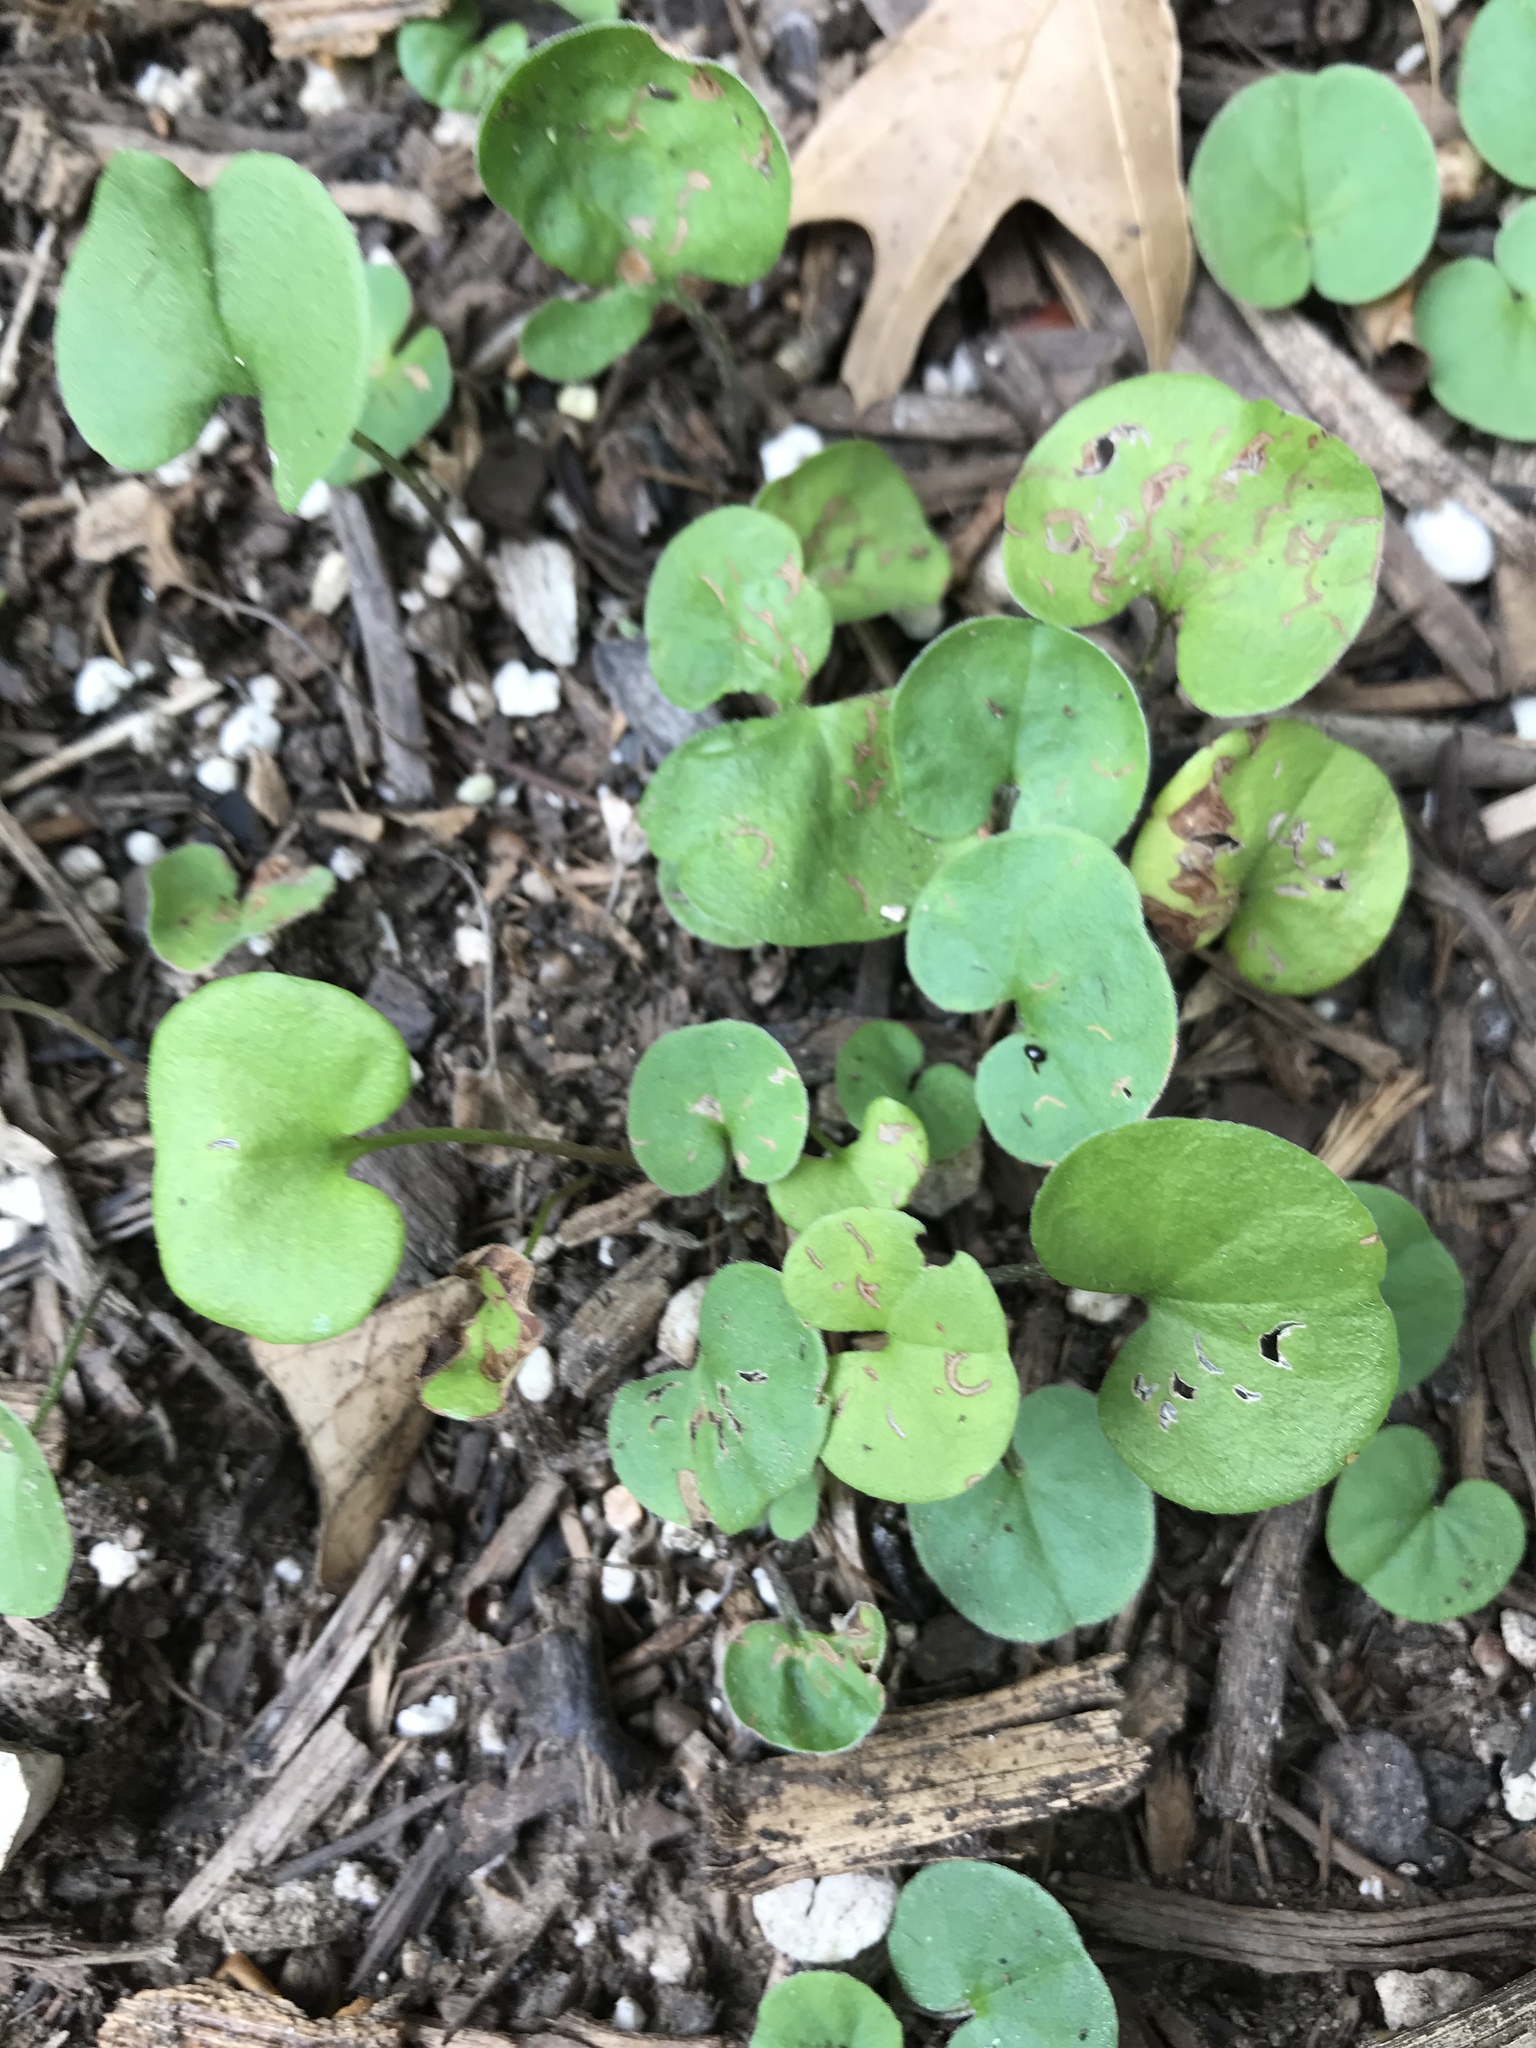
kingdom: Plantae
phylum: Tracheophyta
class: Magnoliopsida
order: Solanales
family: Convolvulaceae
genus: Dichondra
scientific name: Dichondra carolinensis
